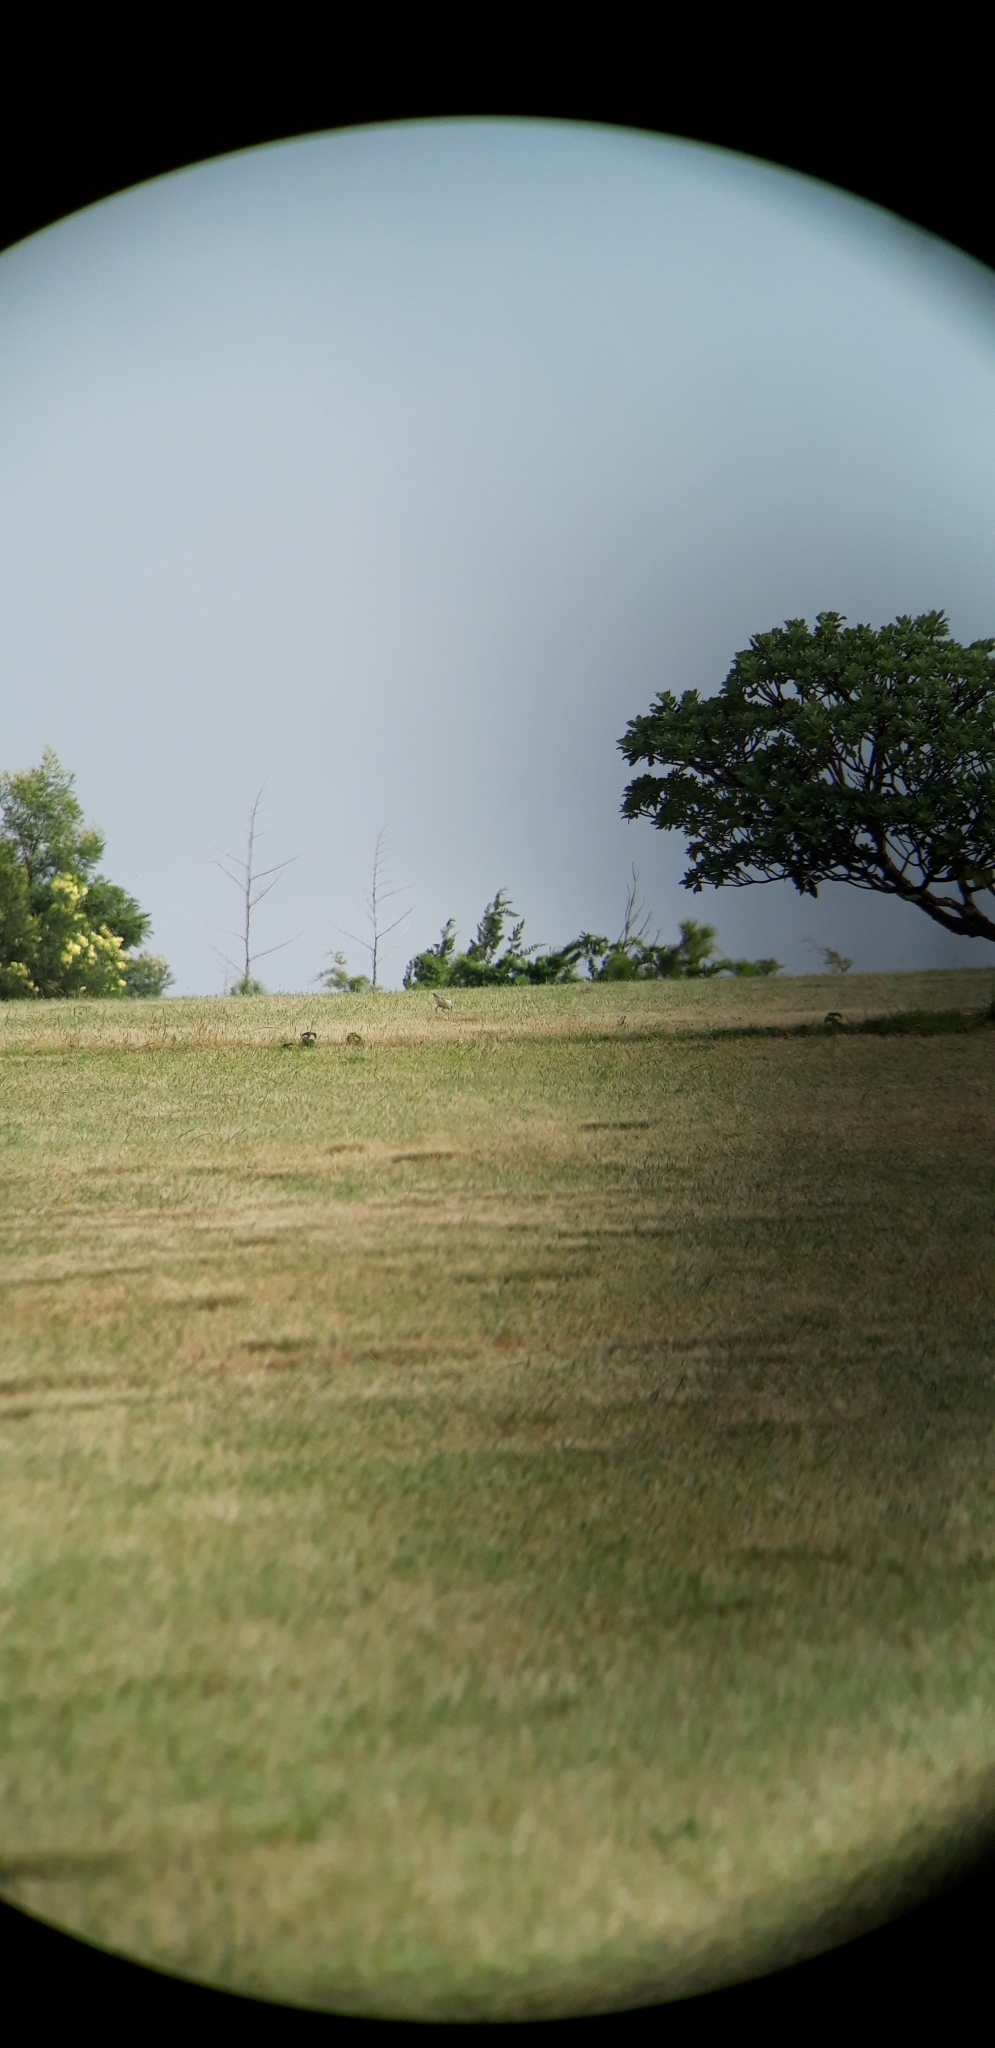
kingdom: Animalia
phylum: Chordata
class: Aves
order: Charadriiformes
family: Charadriidae
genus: Anarhynchus
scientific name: Anarhynchus
